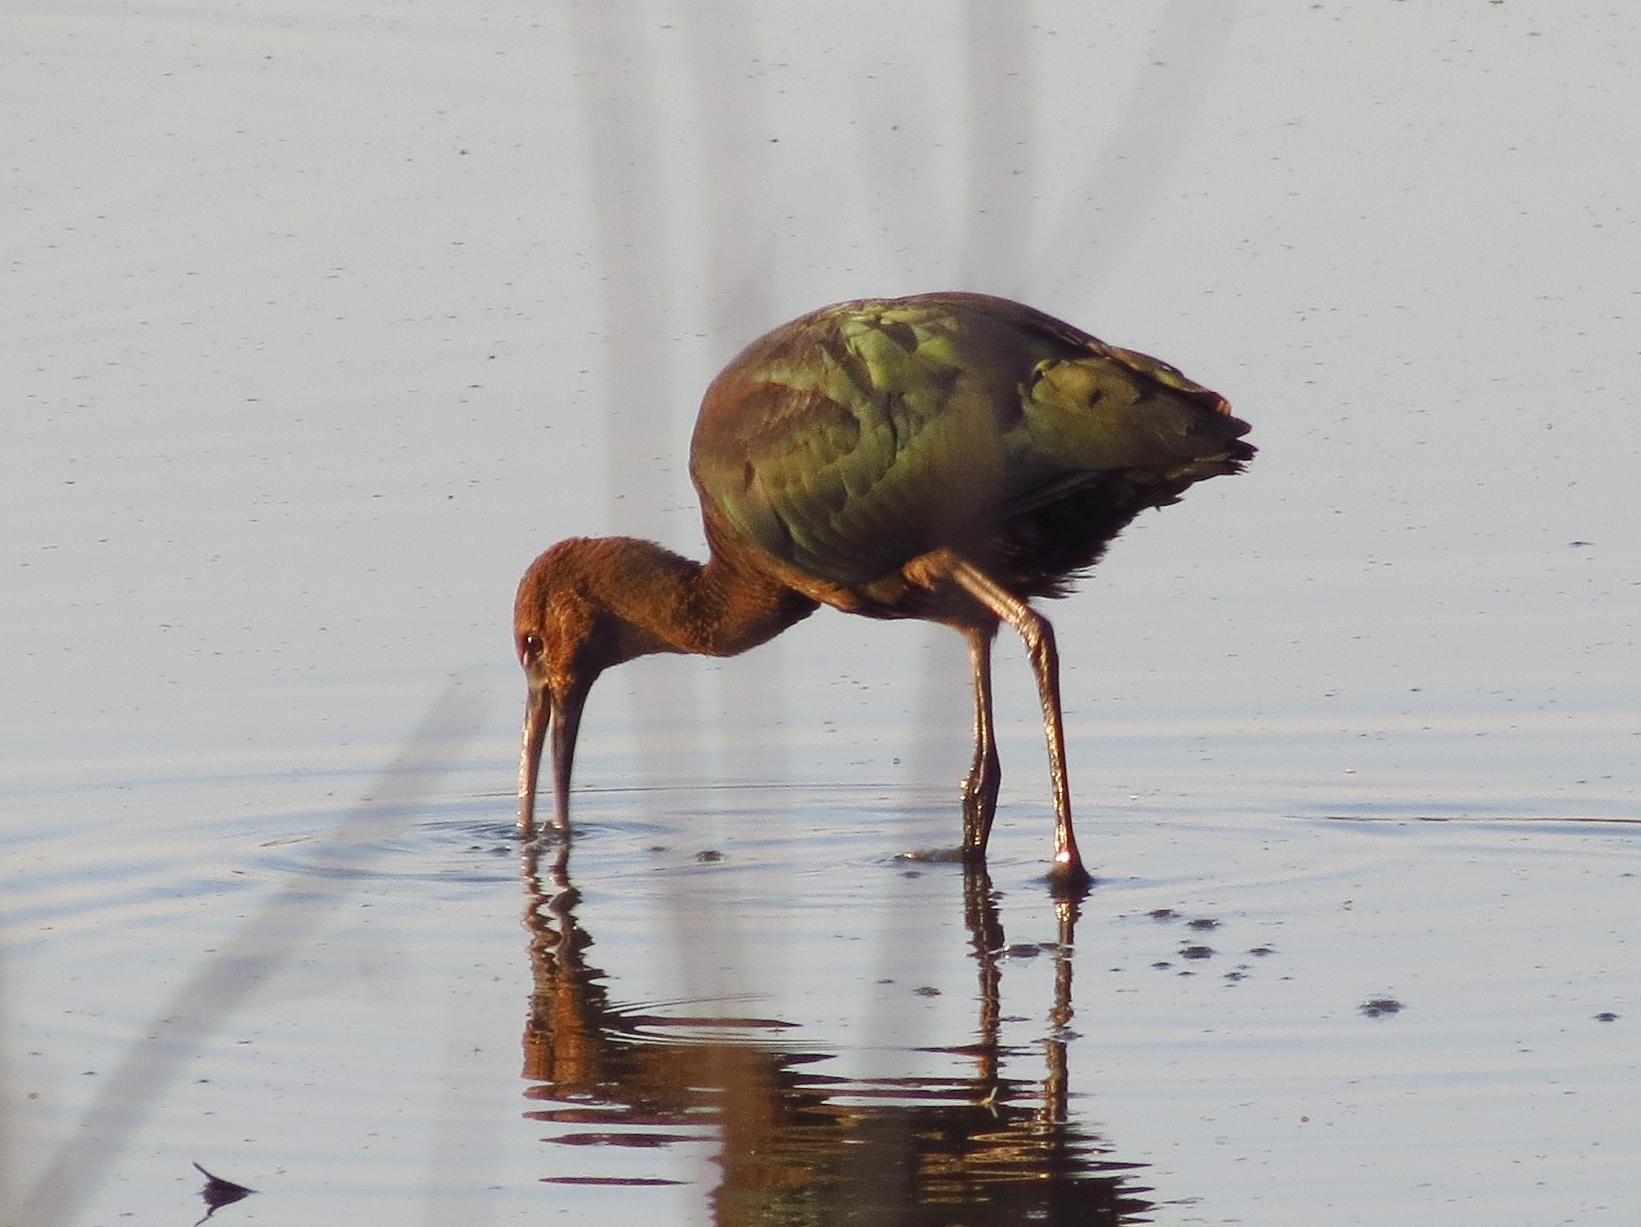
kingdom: Animalia
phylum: Chordata
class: Aves
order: Pelecaniformes
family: Threskiornithidae
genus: Plegadis
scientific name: Plegadis chihi
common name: White-faced ibis
